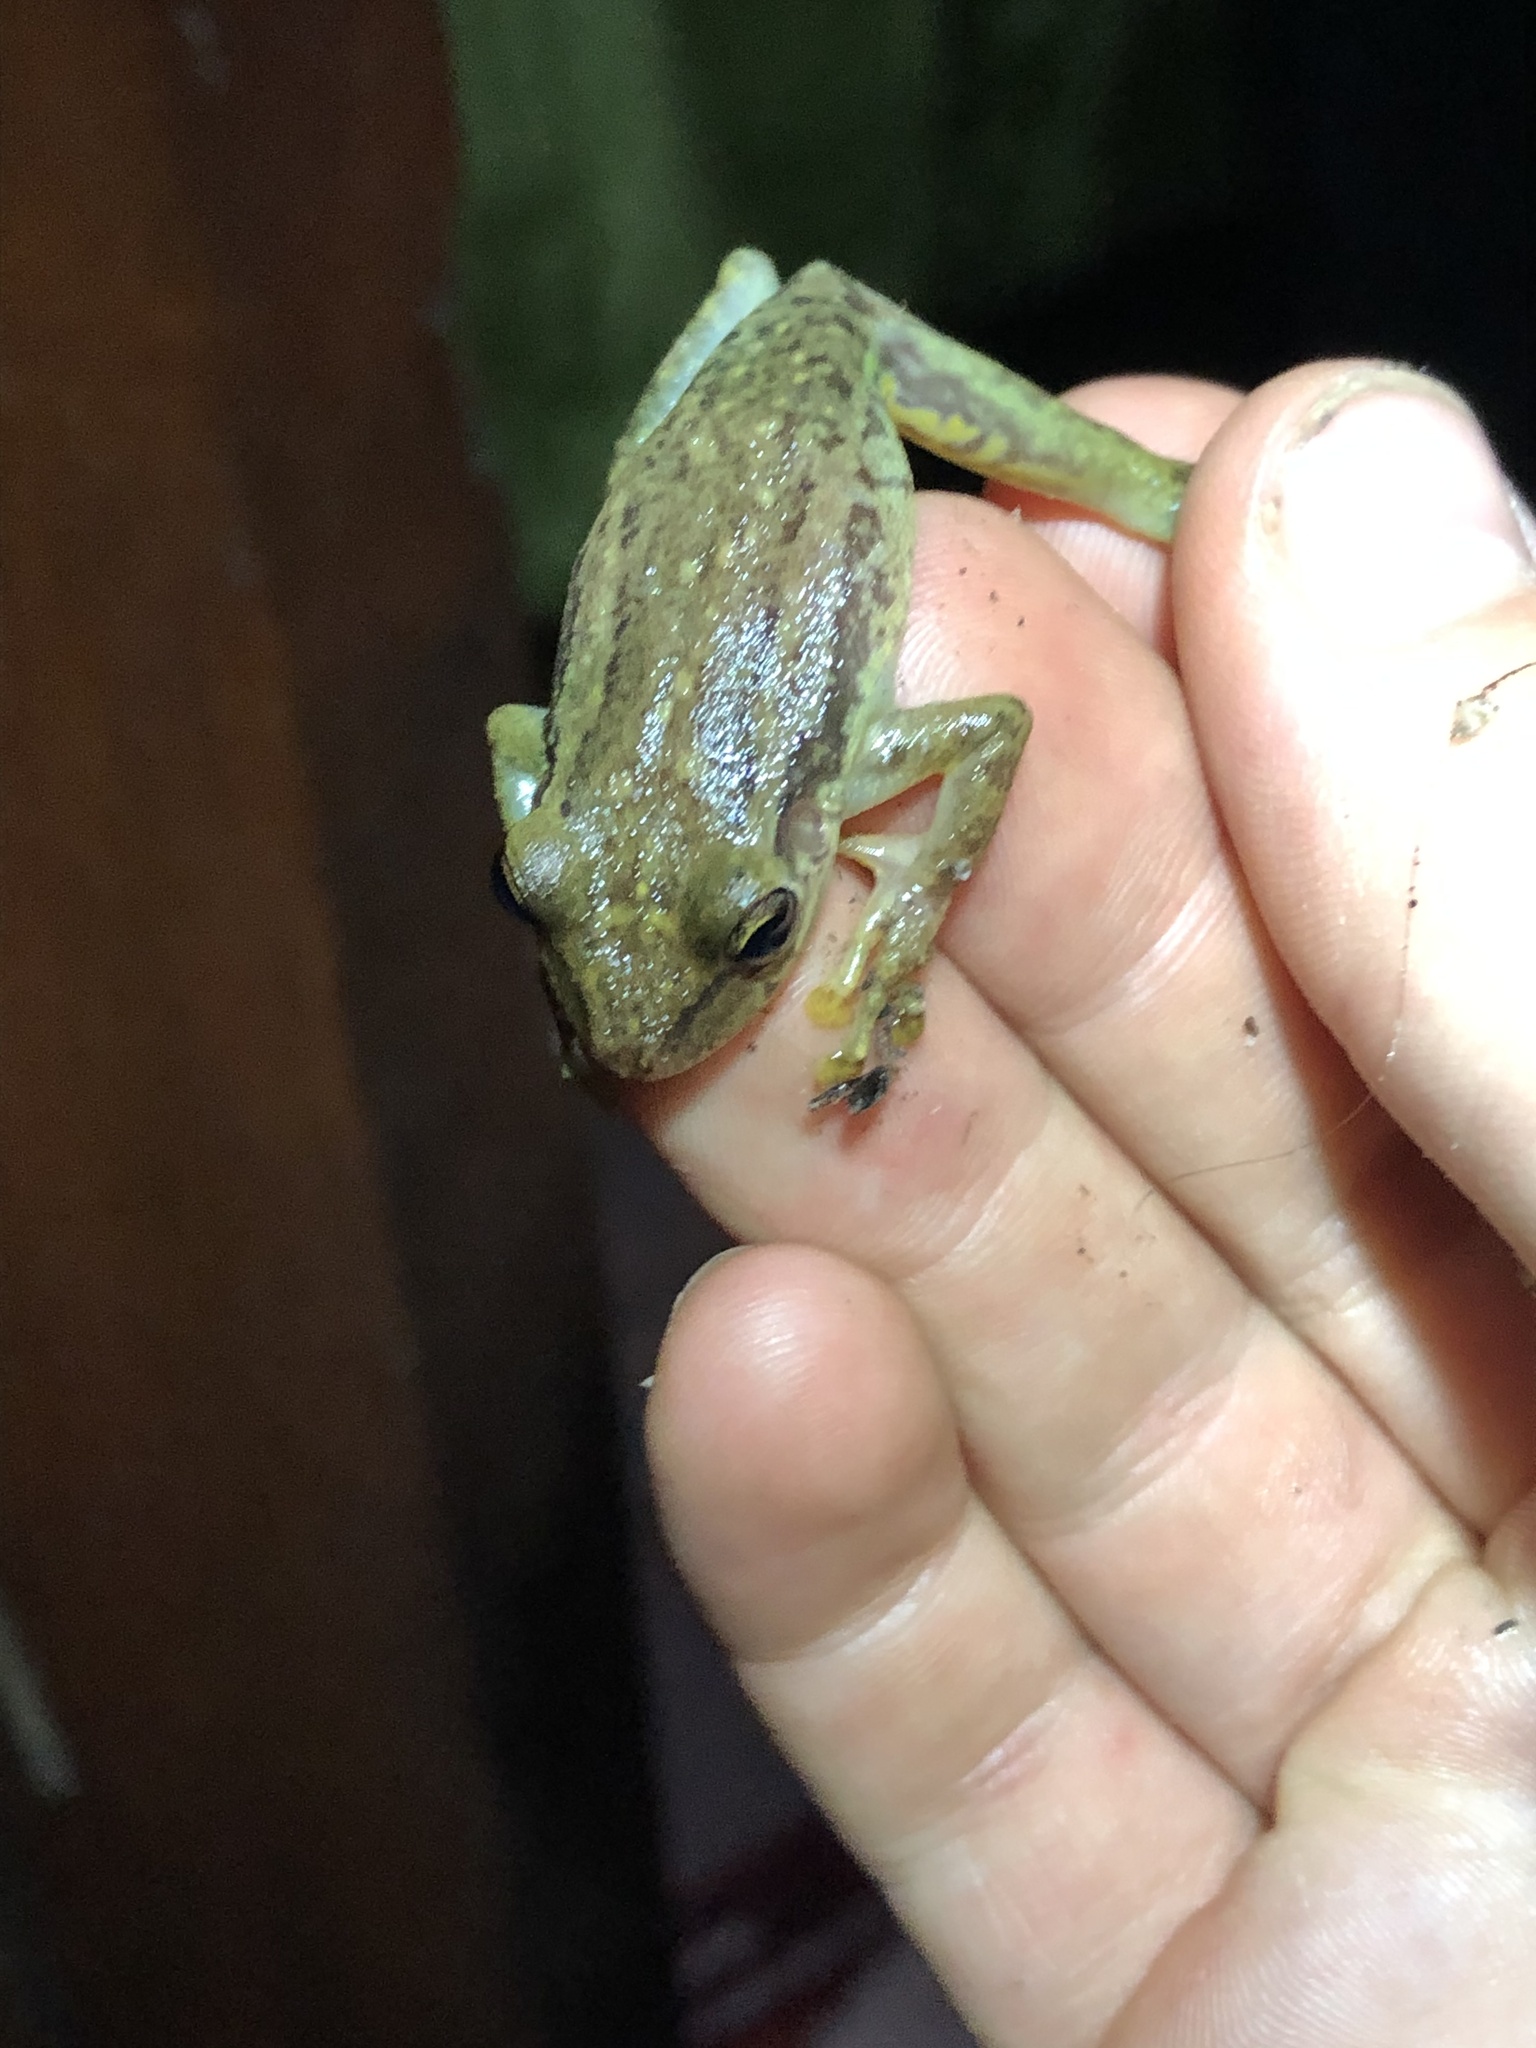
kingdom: Animalia
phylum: Chordata
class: Amphibia
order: Anura
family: Hylidae
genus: Scinax
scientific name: Scinax ictericus
